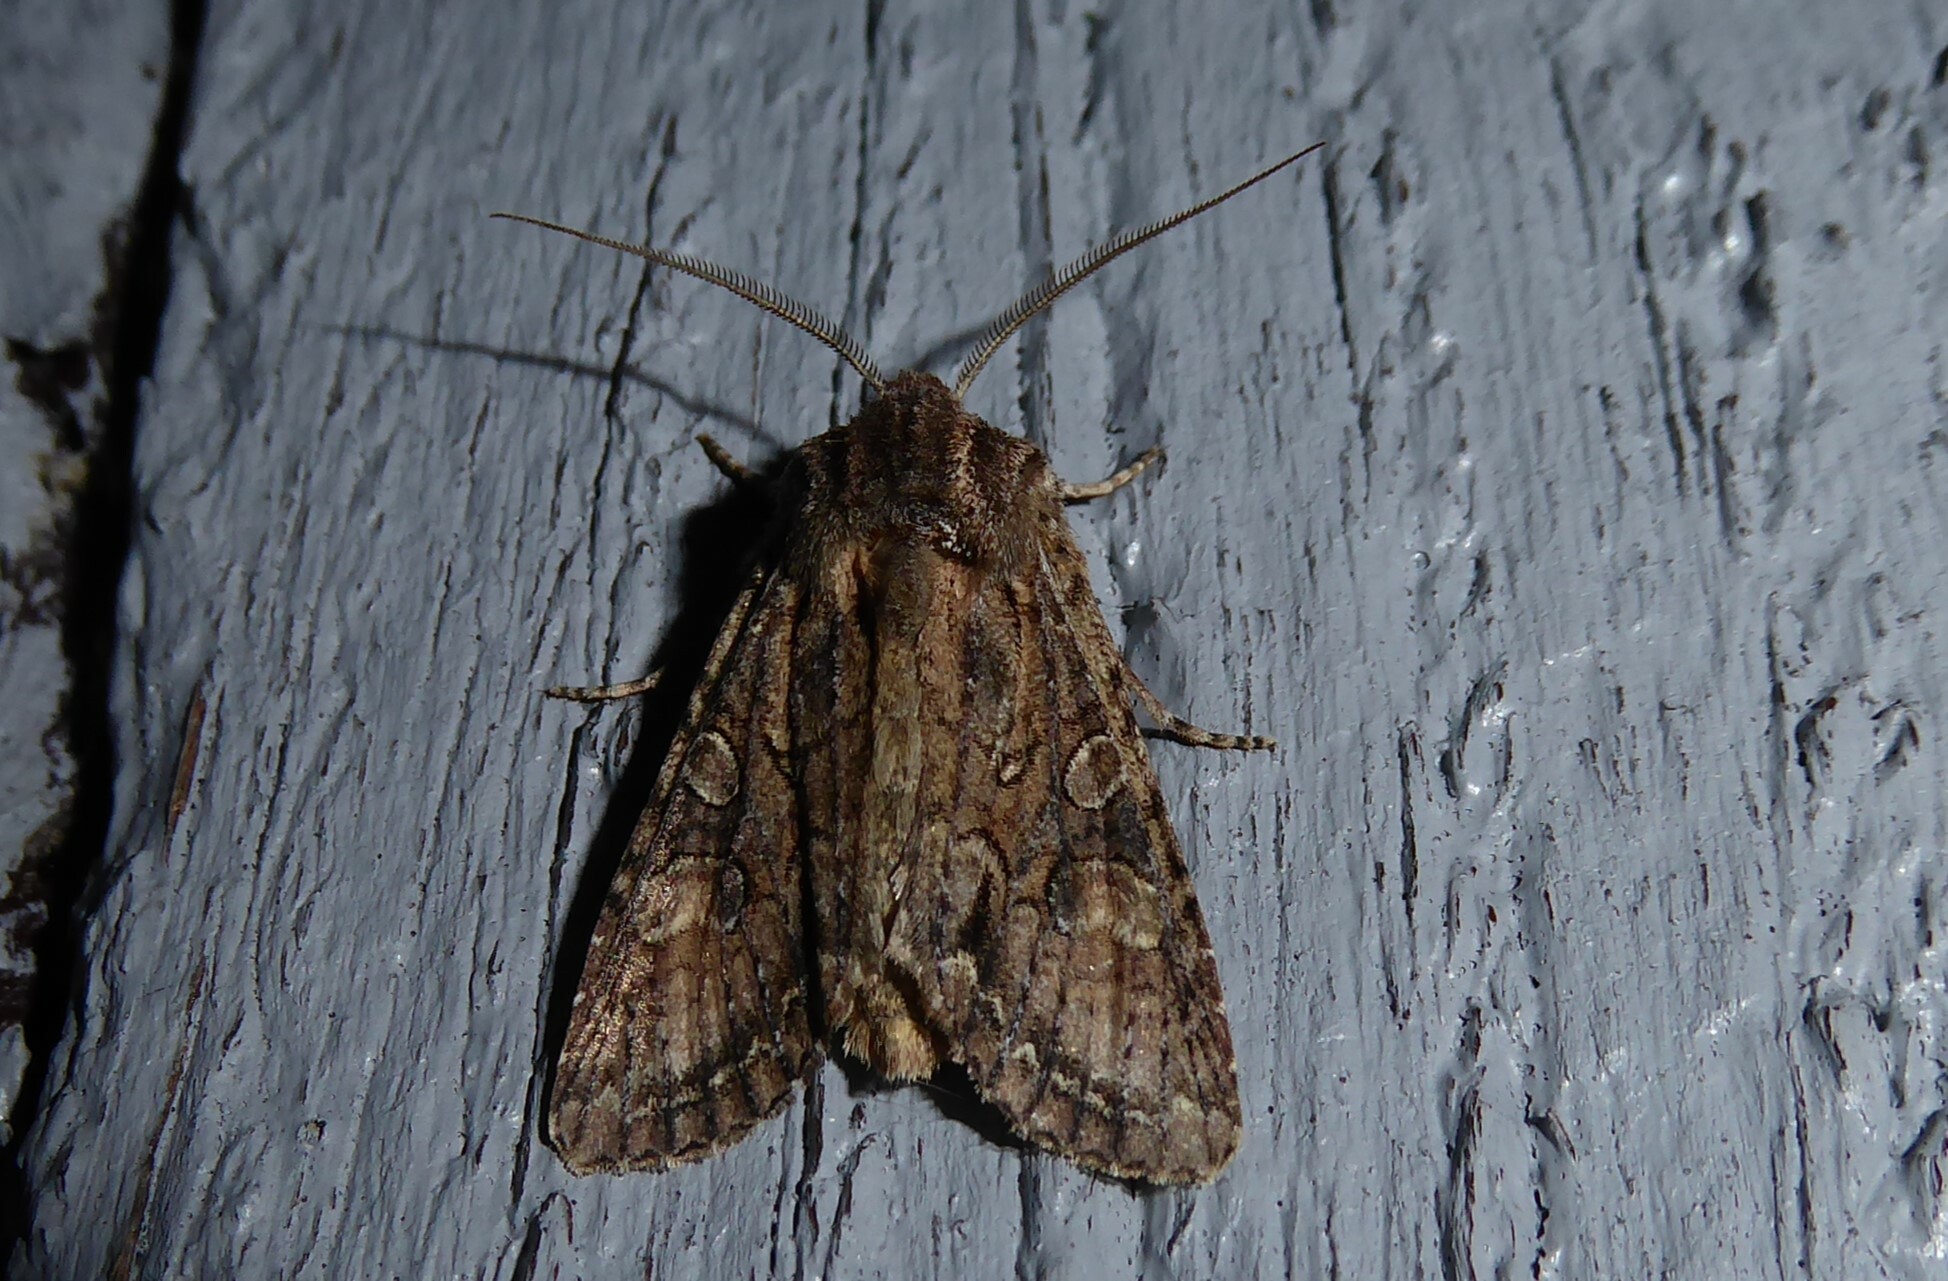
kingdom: Animalia
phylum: Arthropoda
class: Insecta
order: Lepidoptera
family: Noctuidae
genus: Ichneutica
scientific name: Ichneutica mutans
